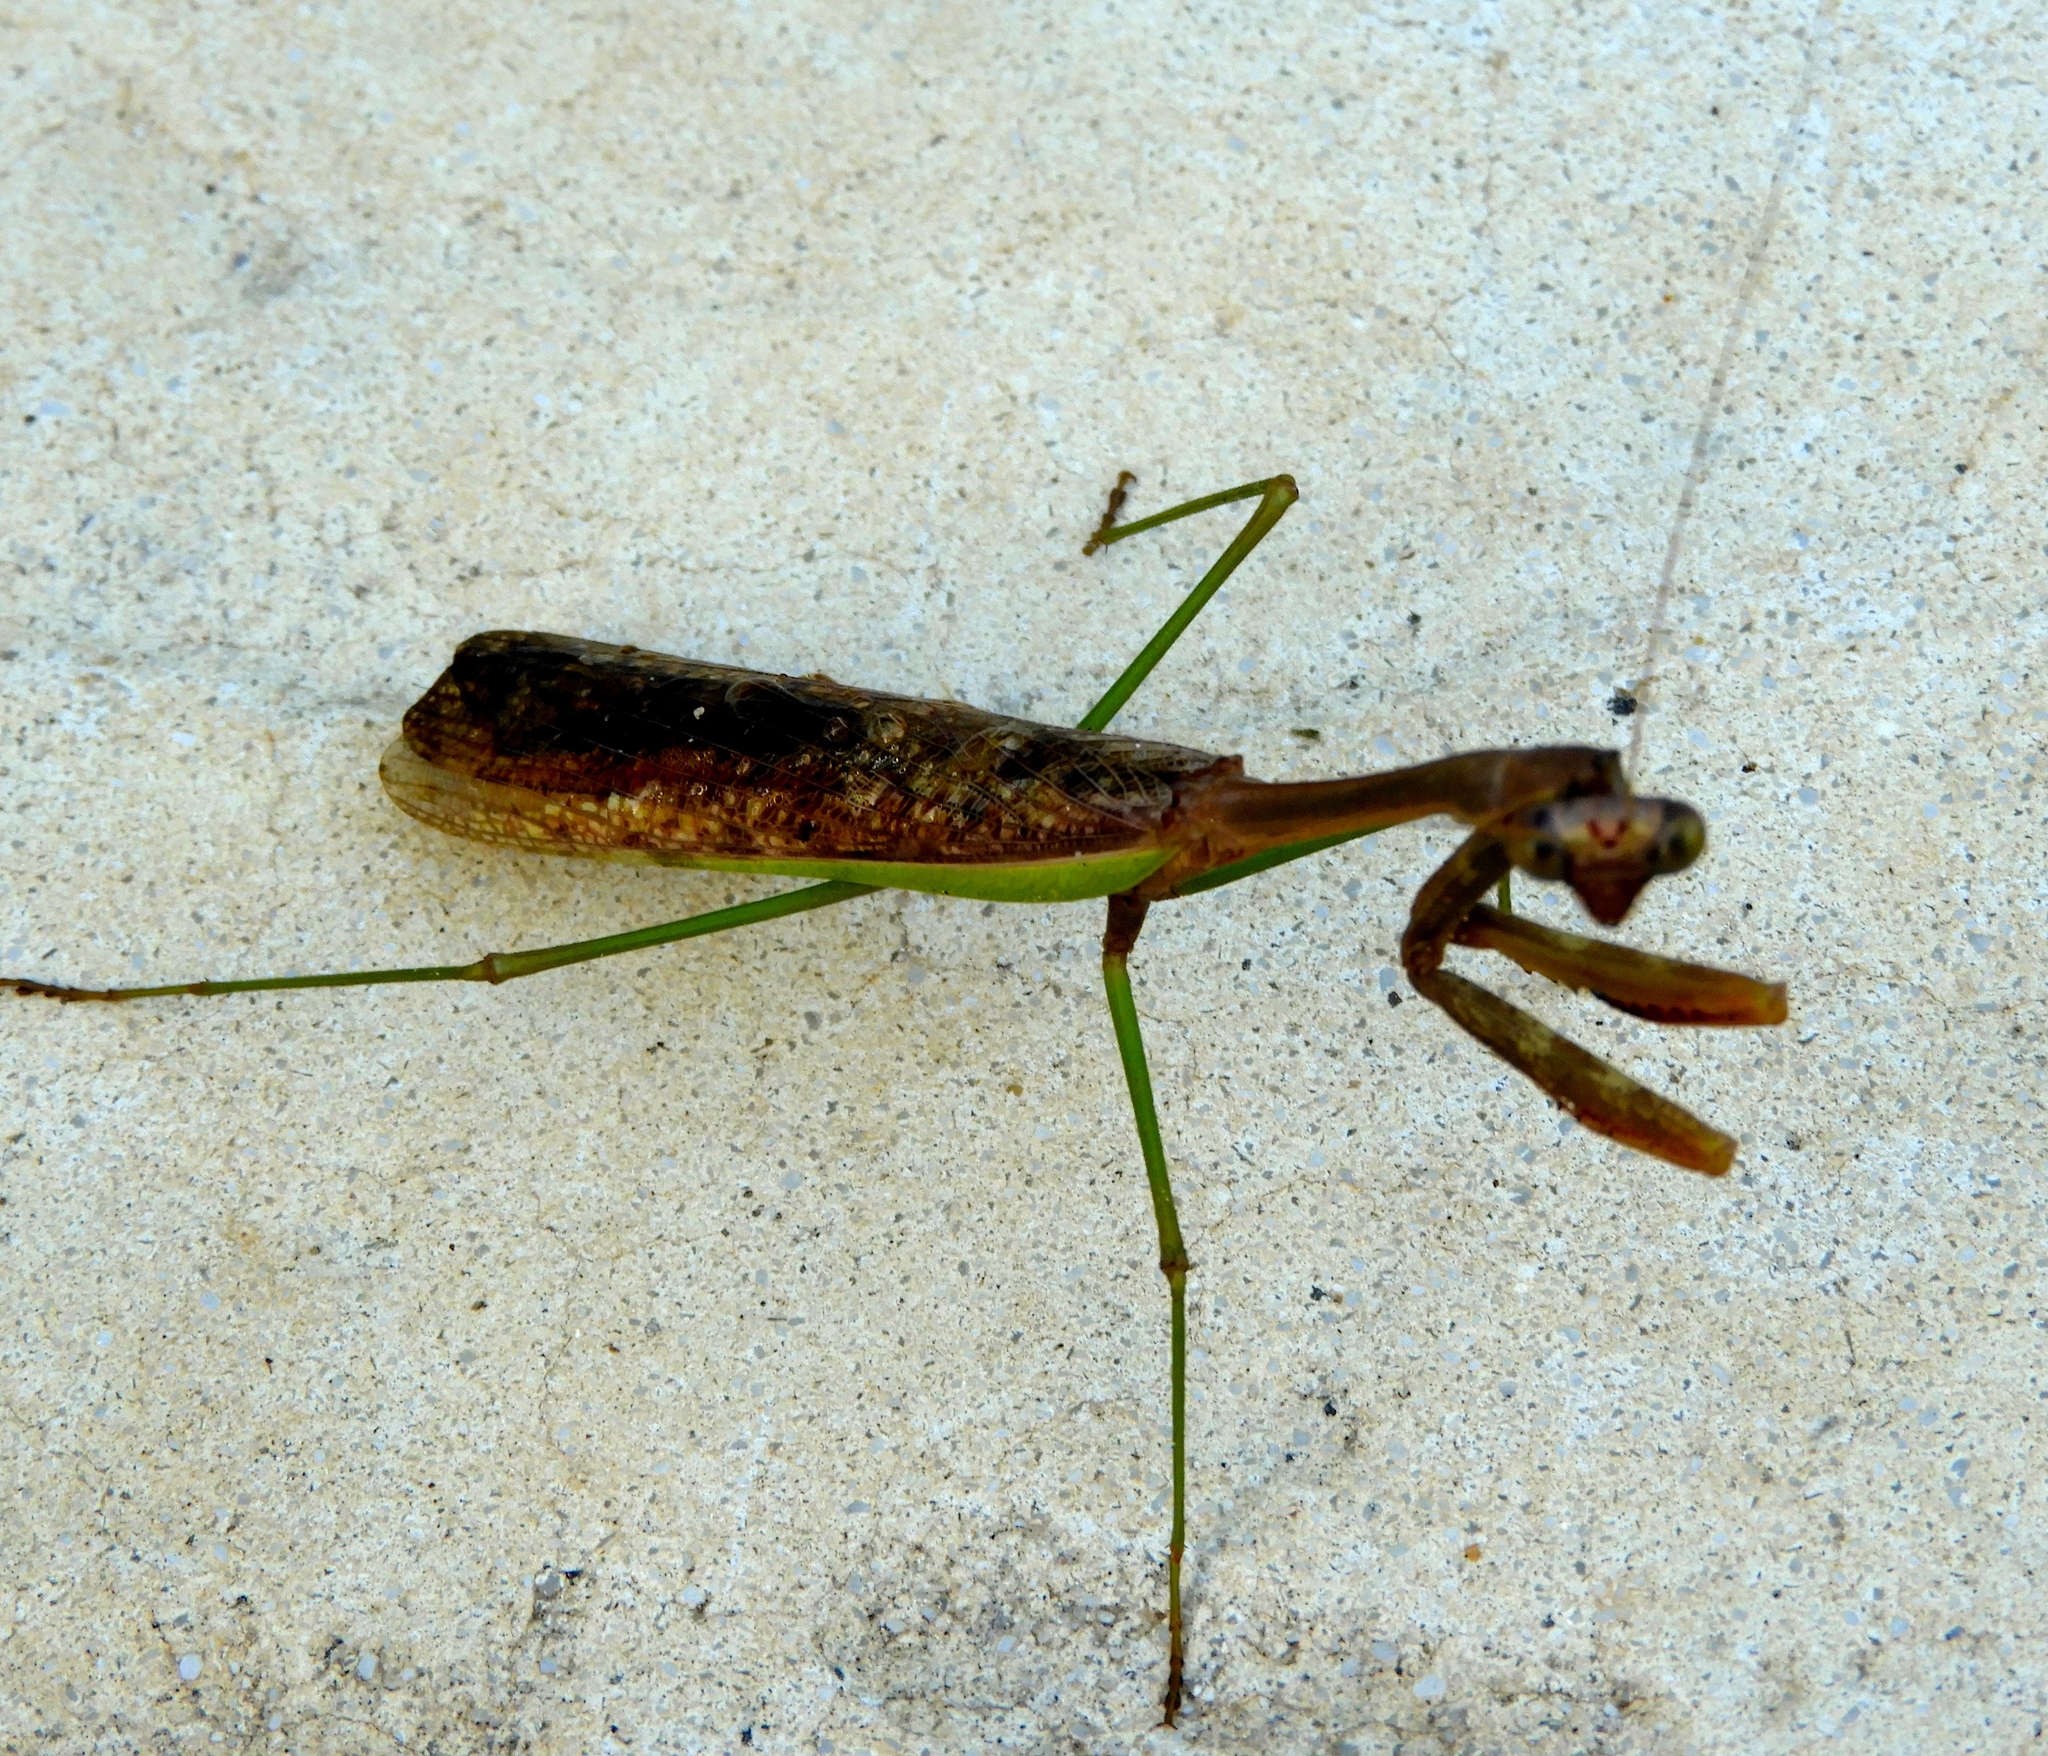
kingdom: Animalia
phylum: Arthropoda
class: Insecta
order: Mantodea
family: Mantidae
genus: Stagmomantis
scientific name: Stagmomantis colorata
